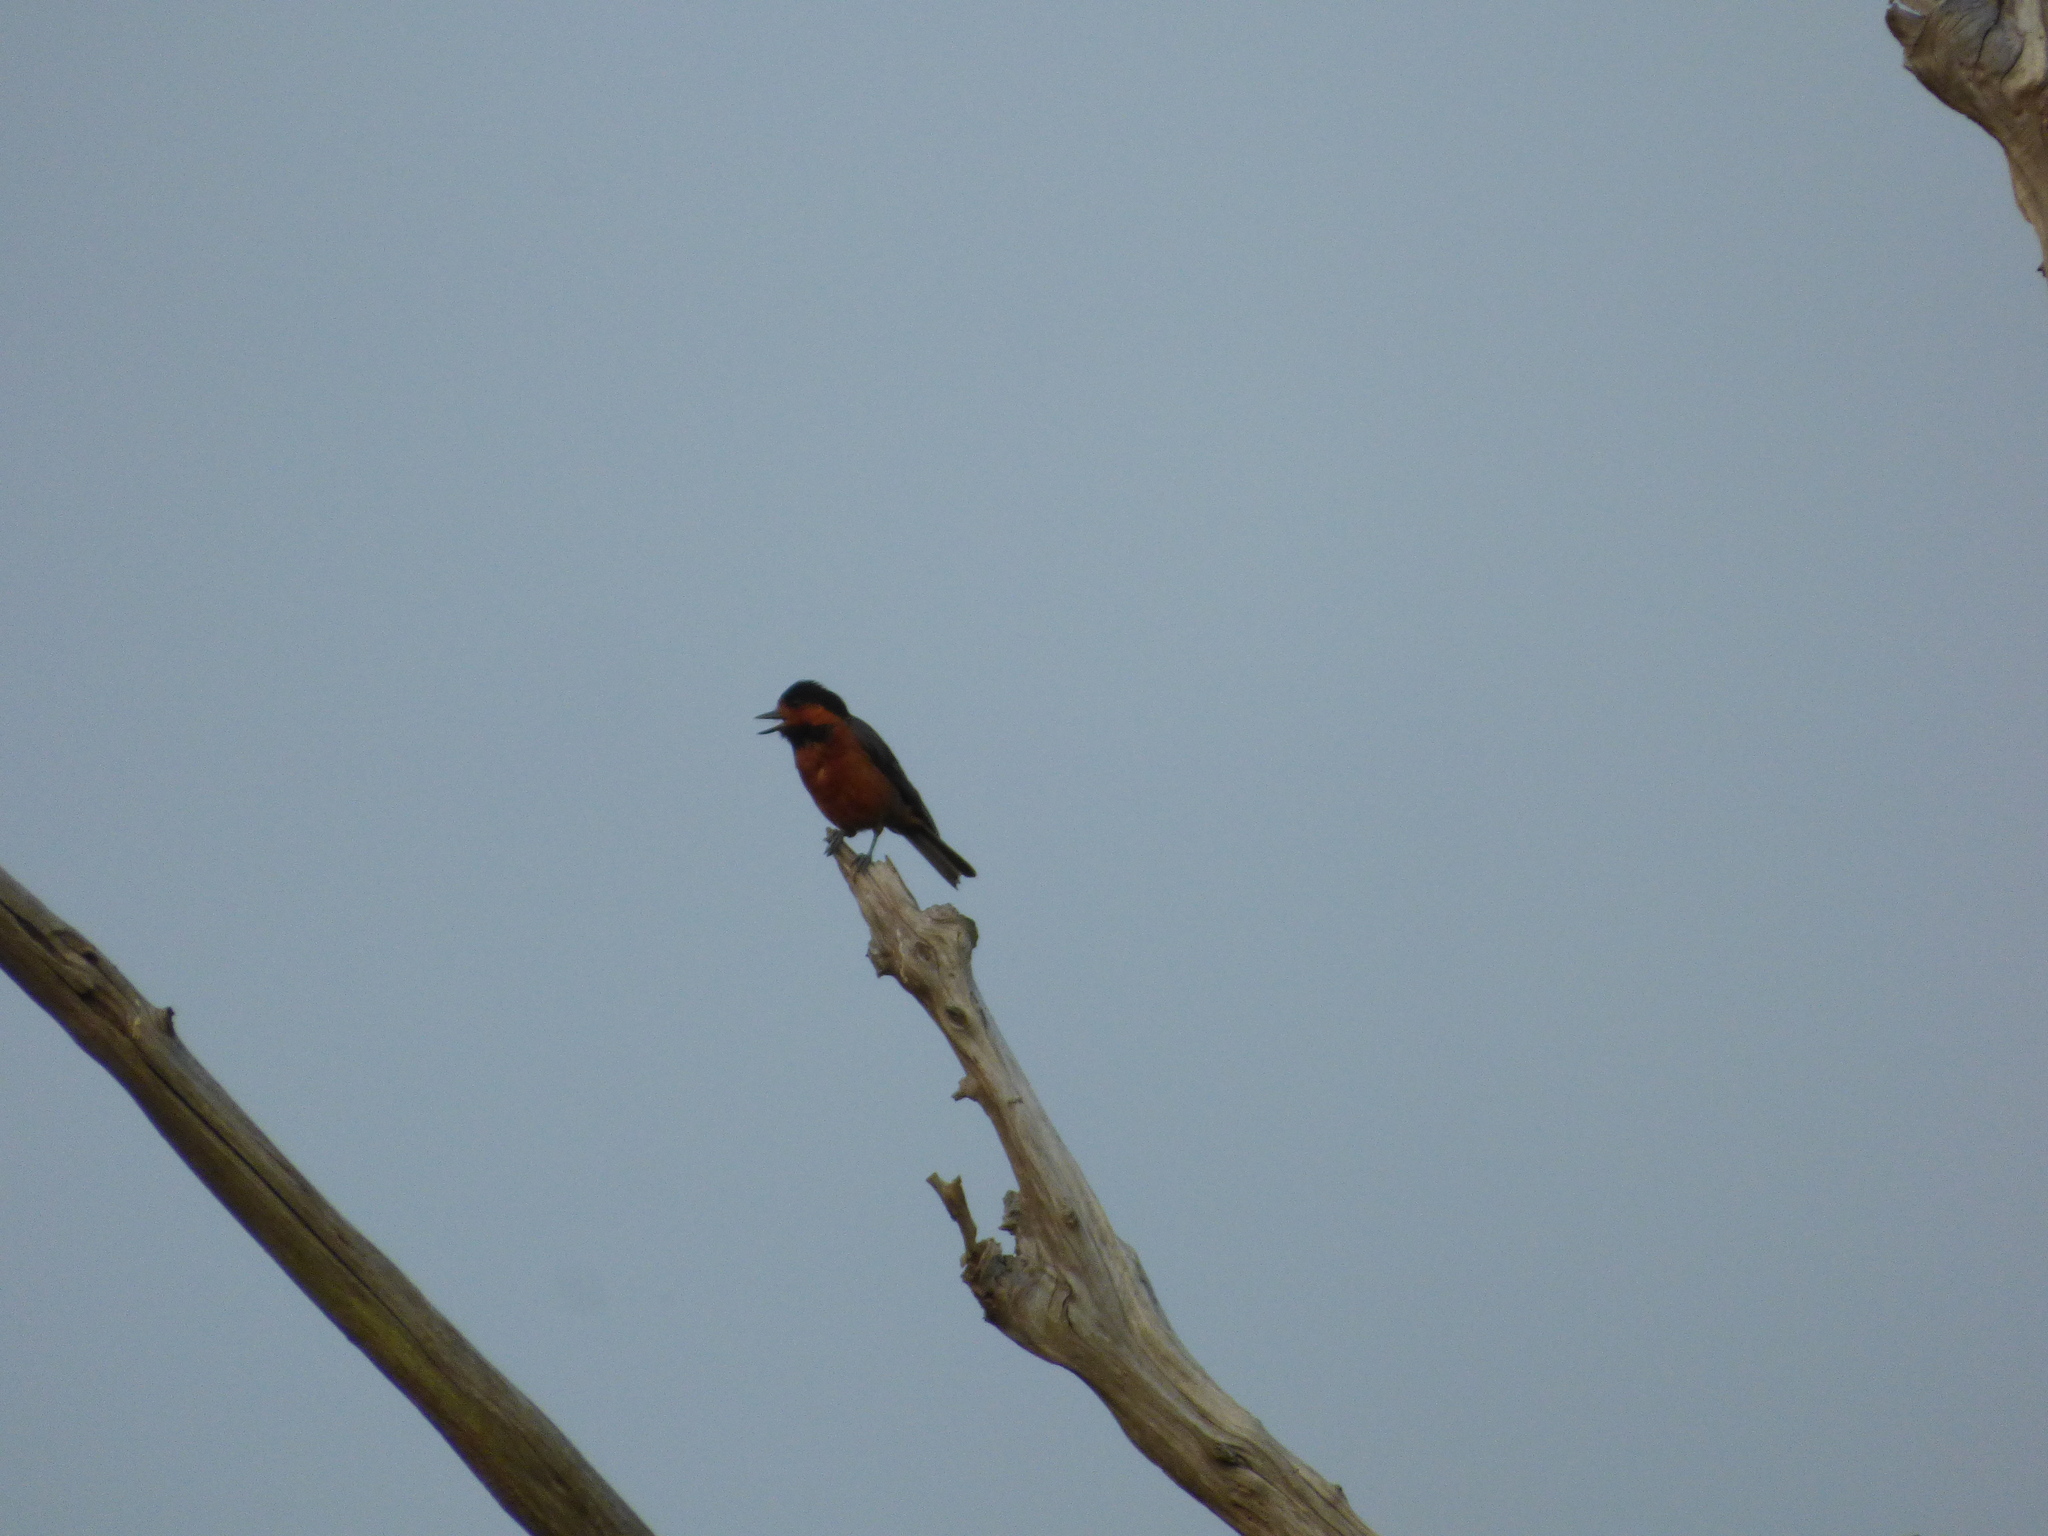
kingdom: Animalia
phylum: Chordata
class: Aves
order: Passeriformes
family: Paridae
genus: Poecile
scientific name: Poecile varius
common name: Varied tit
